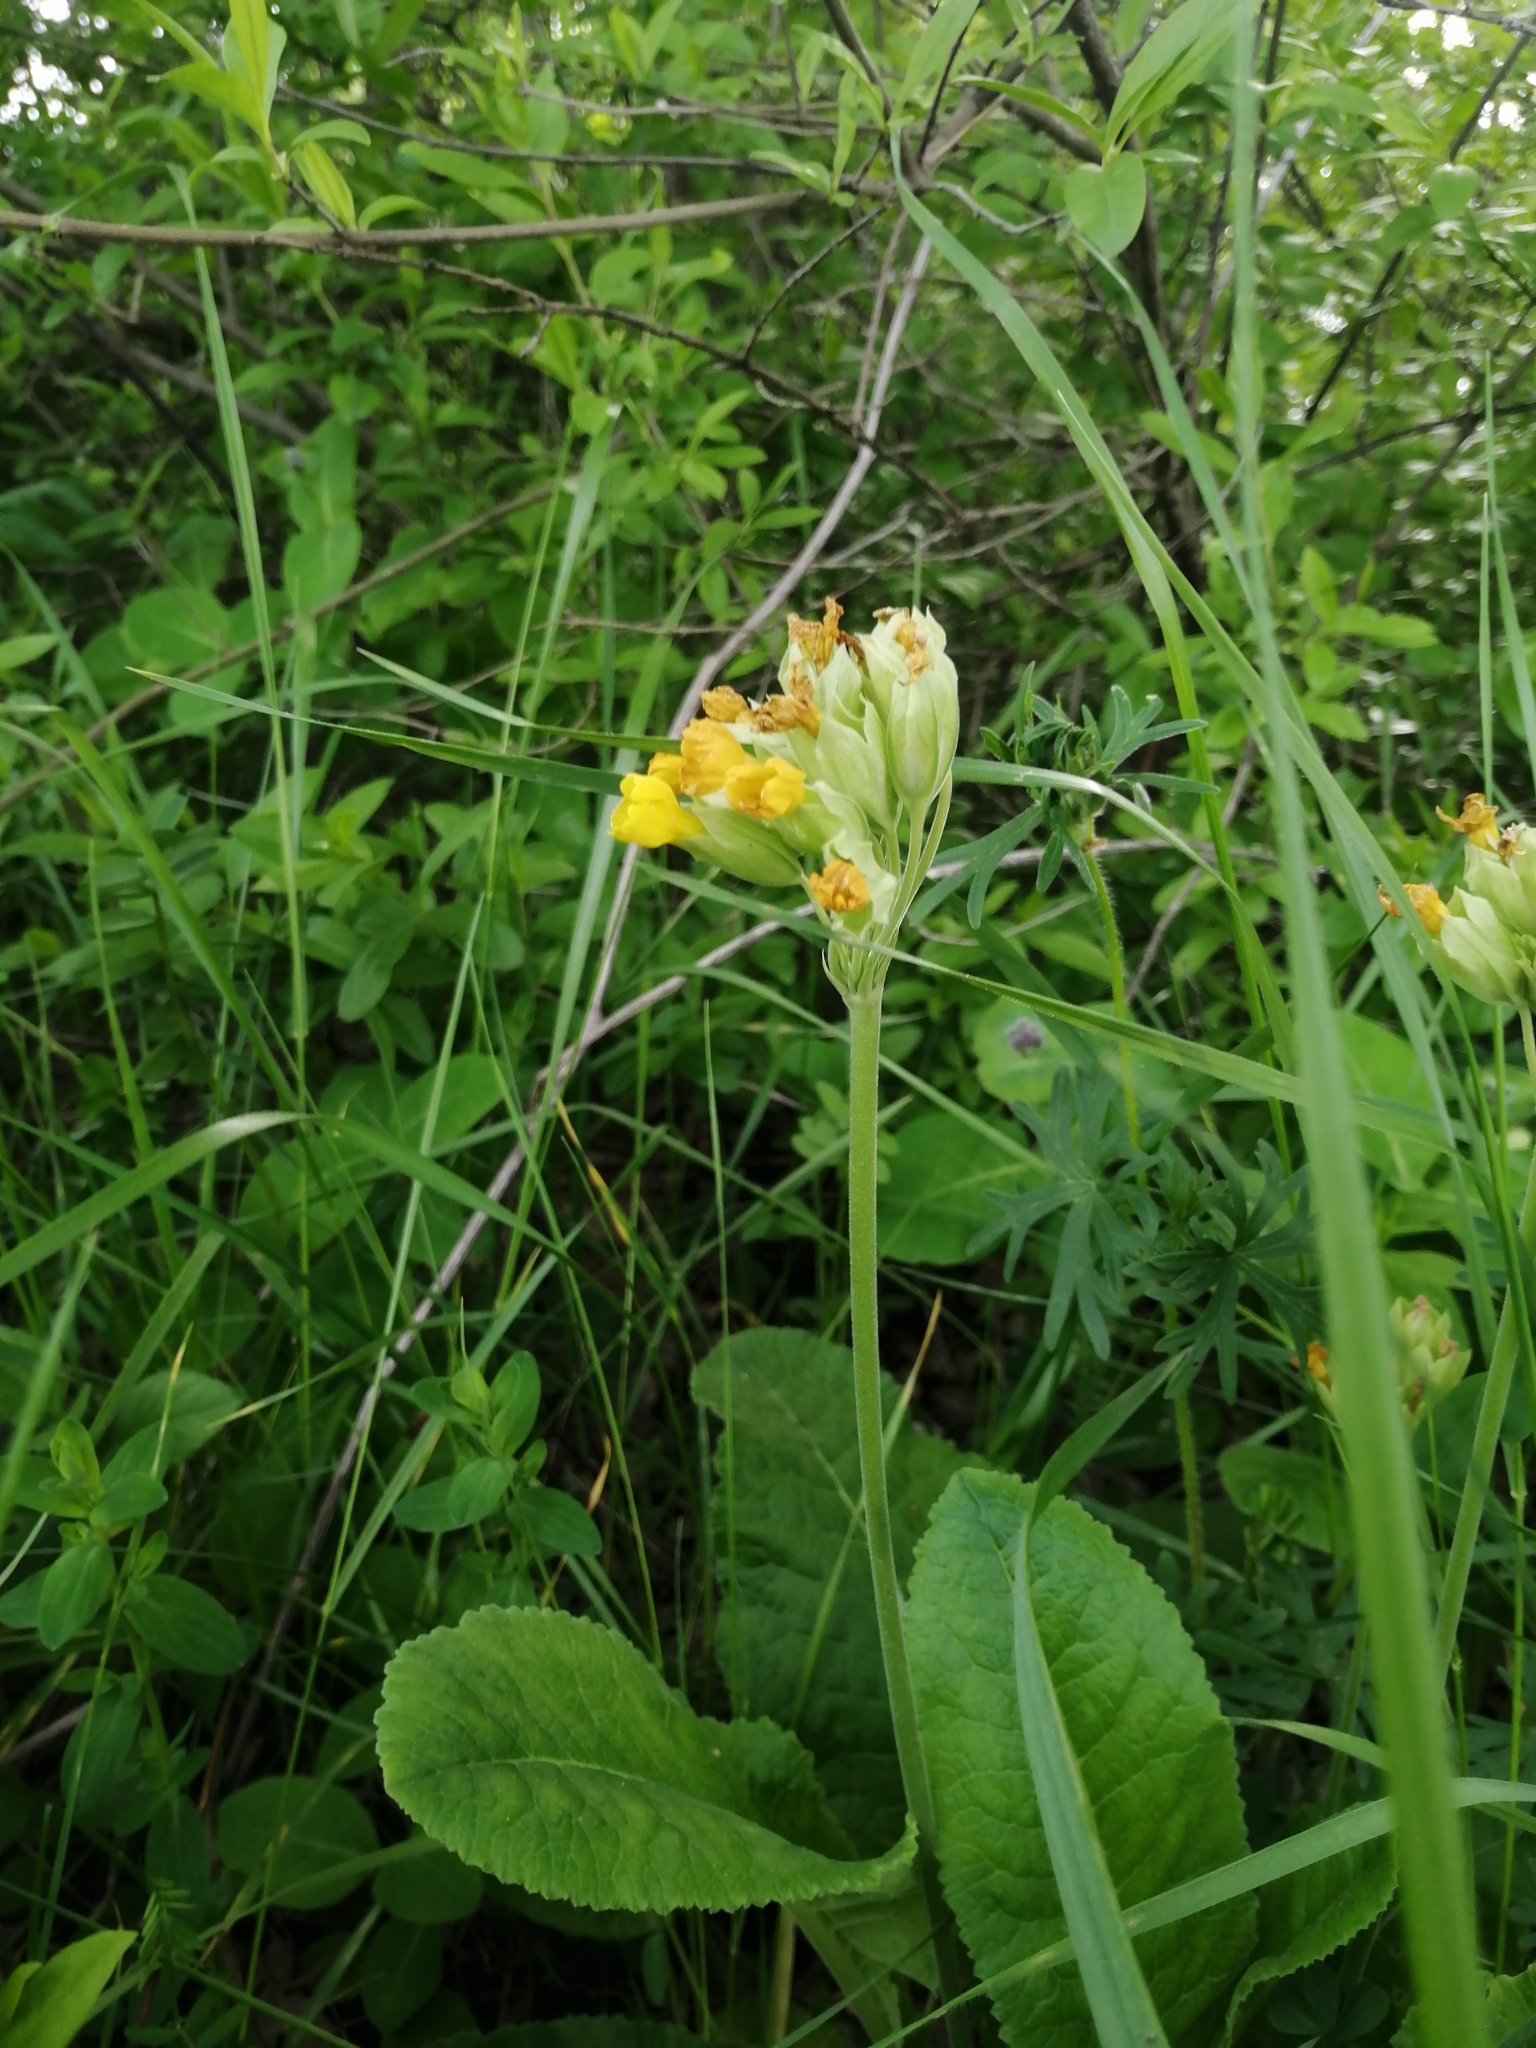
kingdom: Plantae
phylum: Tracheophyta
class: Magnoliopsida
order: Ericales
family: Primulaceae
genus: Primula
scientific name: Primula veris
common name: Cowslip
